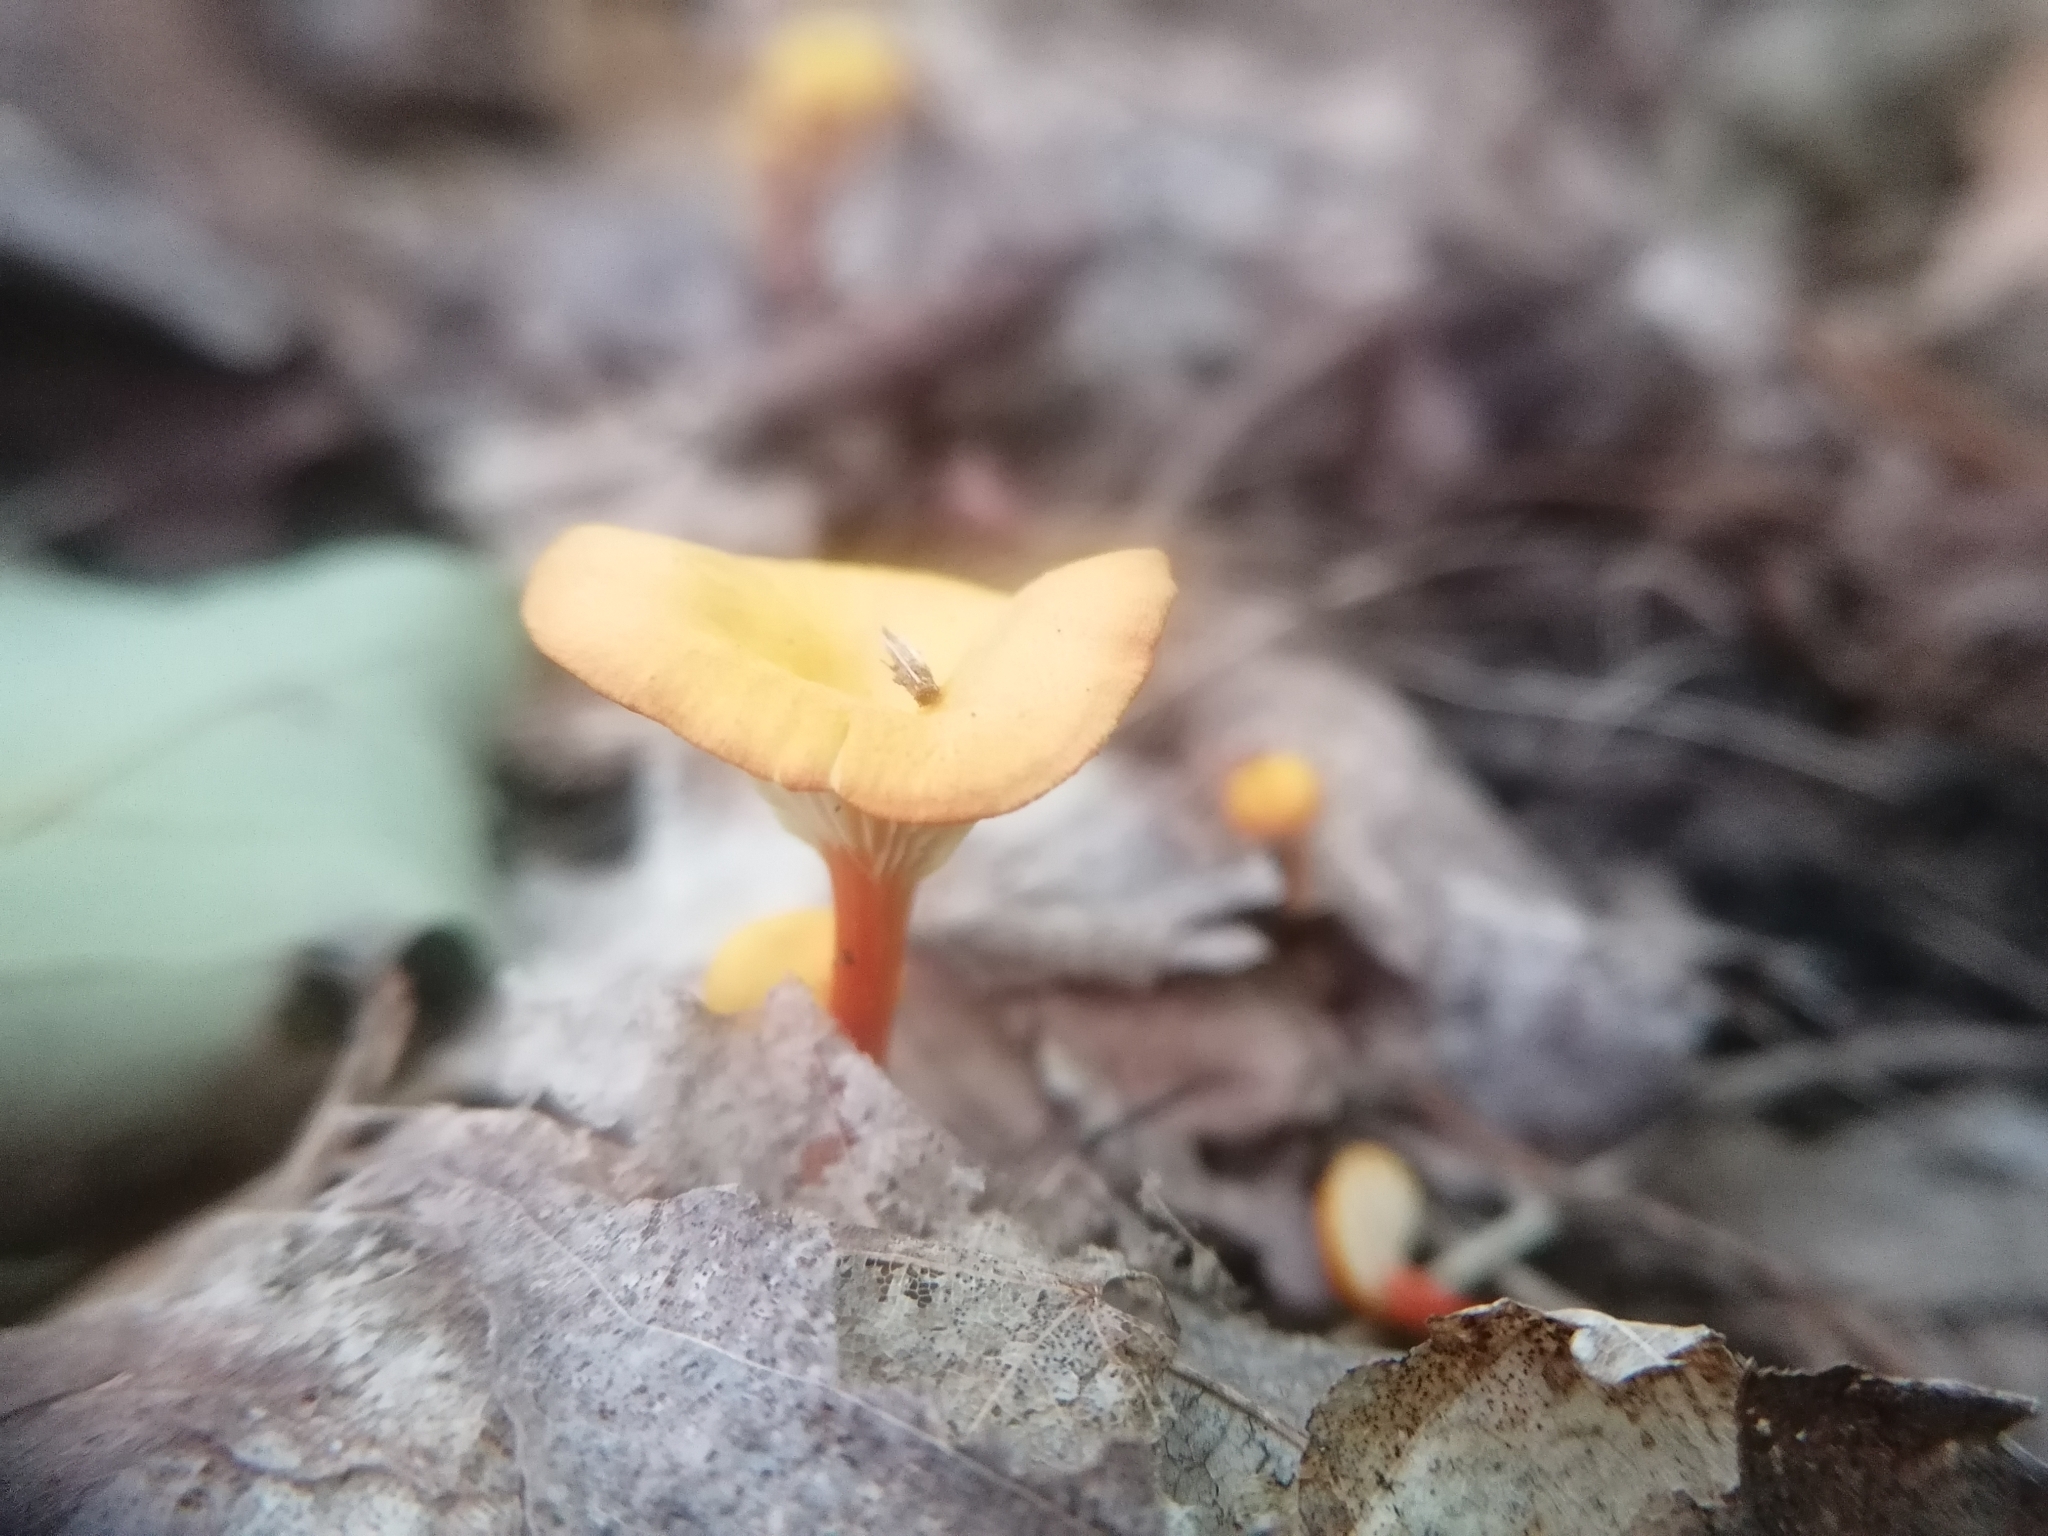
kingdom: Fungi
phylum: Basidiomycota
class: Agaricomycetes
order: Agaricales
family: Hygrophoraceae
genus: Hygrocybe
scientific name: Hygrocybe cantharellus
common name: Goblet waxcap
